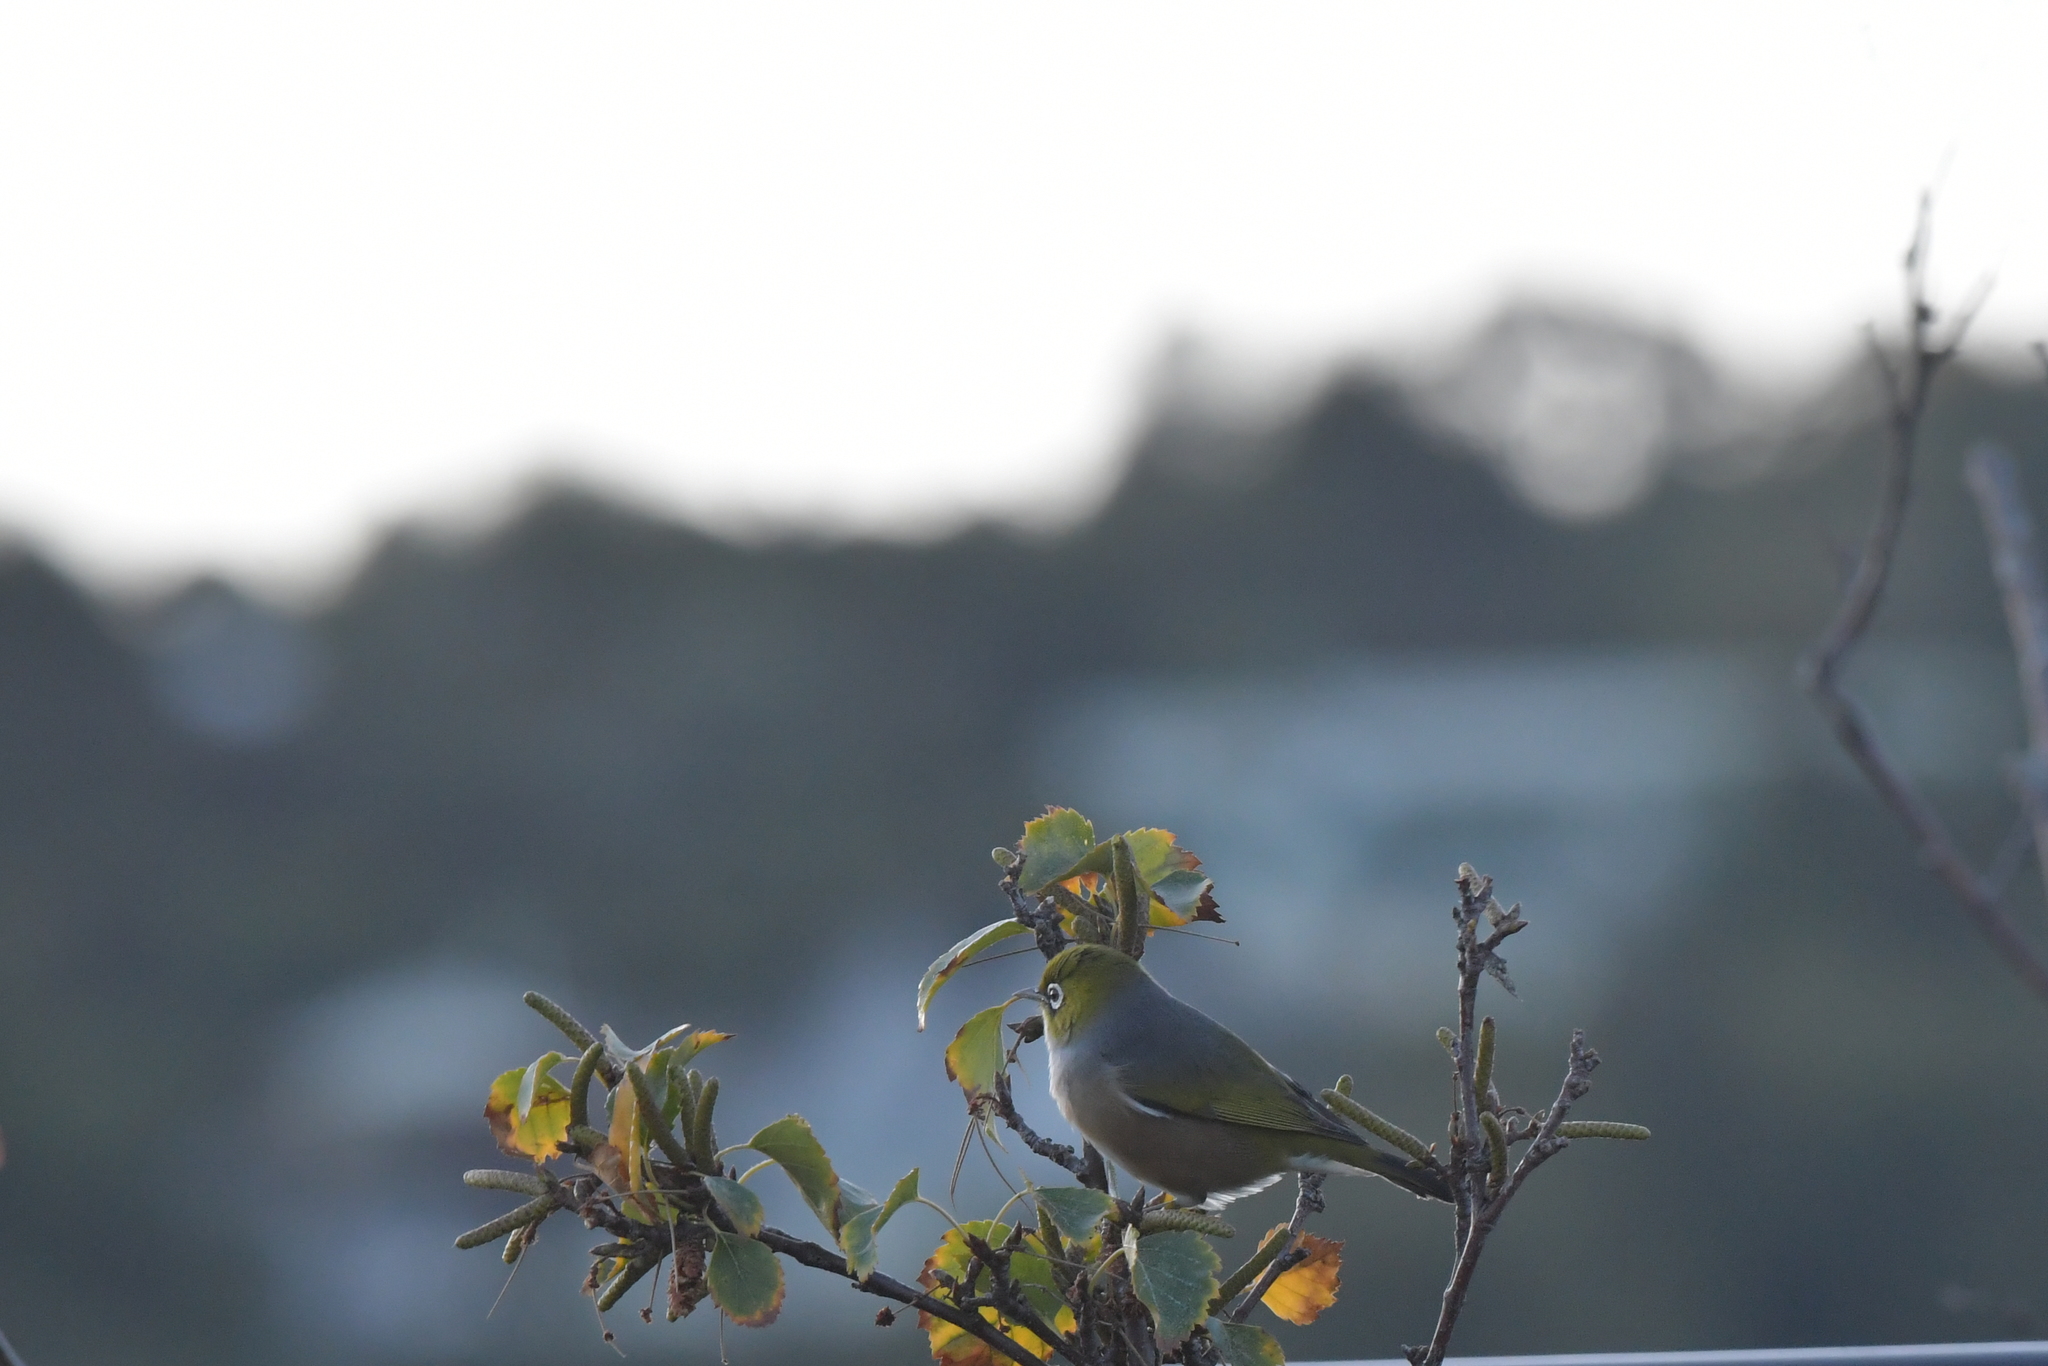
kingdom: Animalia
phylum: Chordata
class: Aves
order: Passeriformes
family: Zosteropidae
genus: Zosterops
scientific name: Zosterops lateralis
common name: Silvereye
